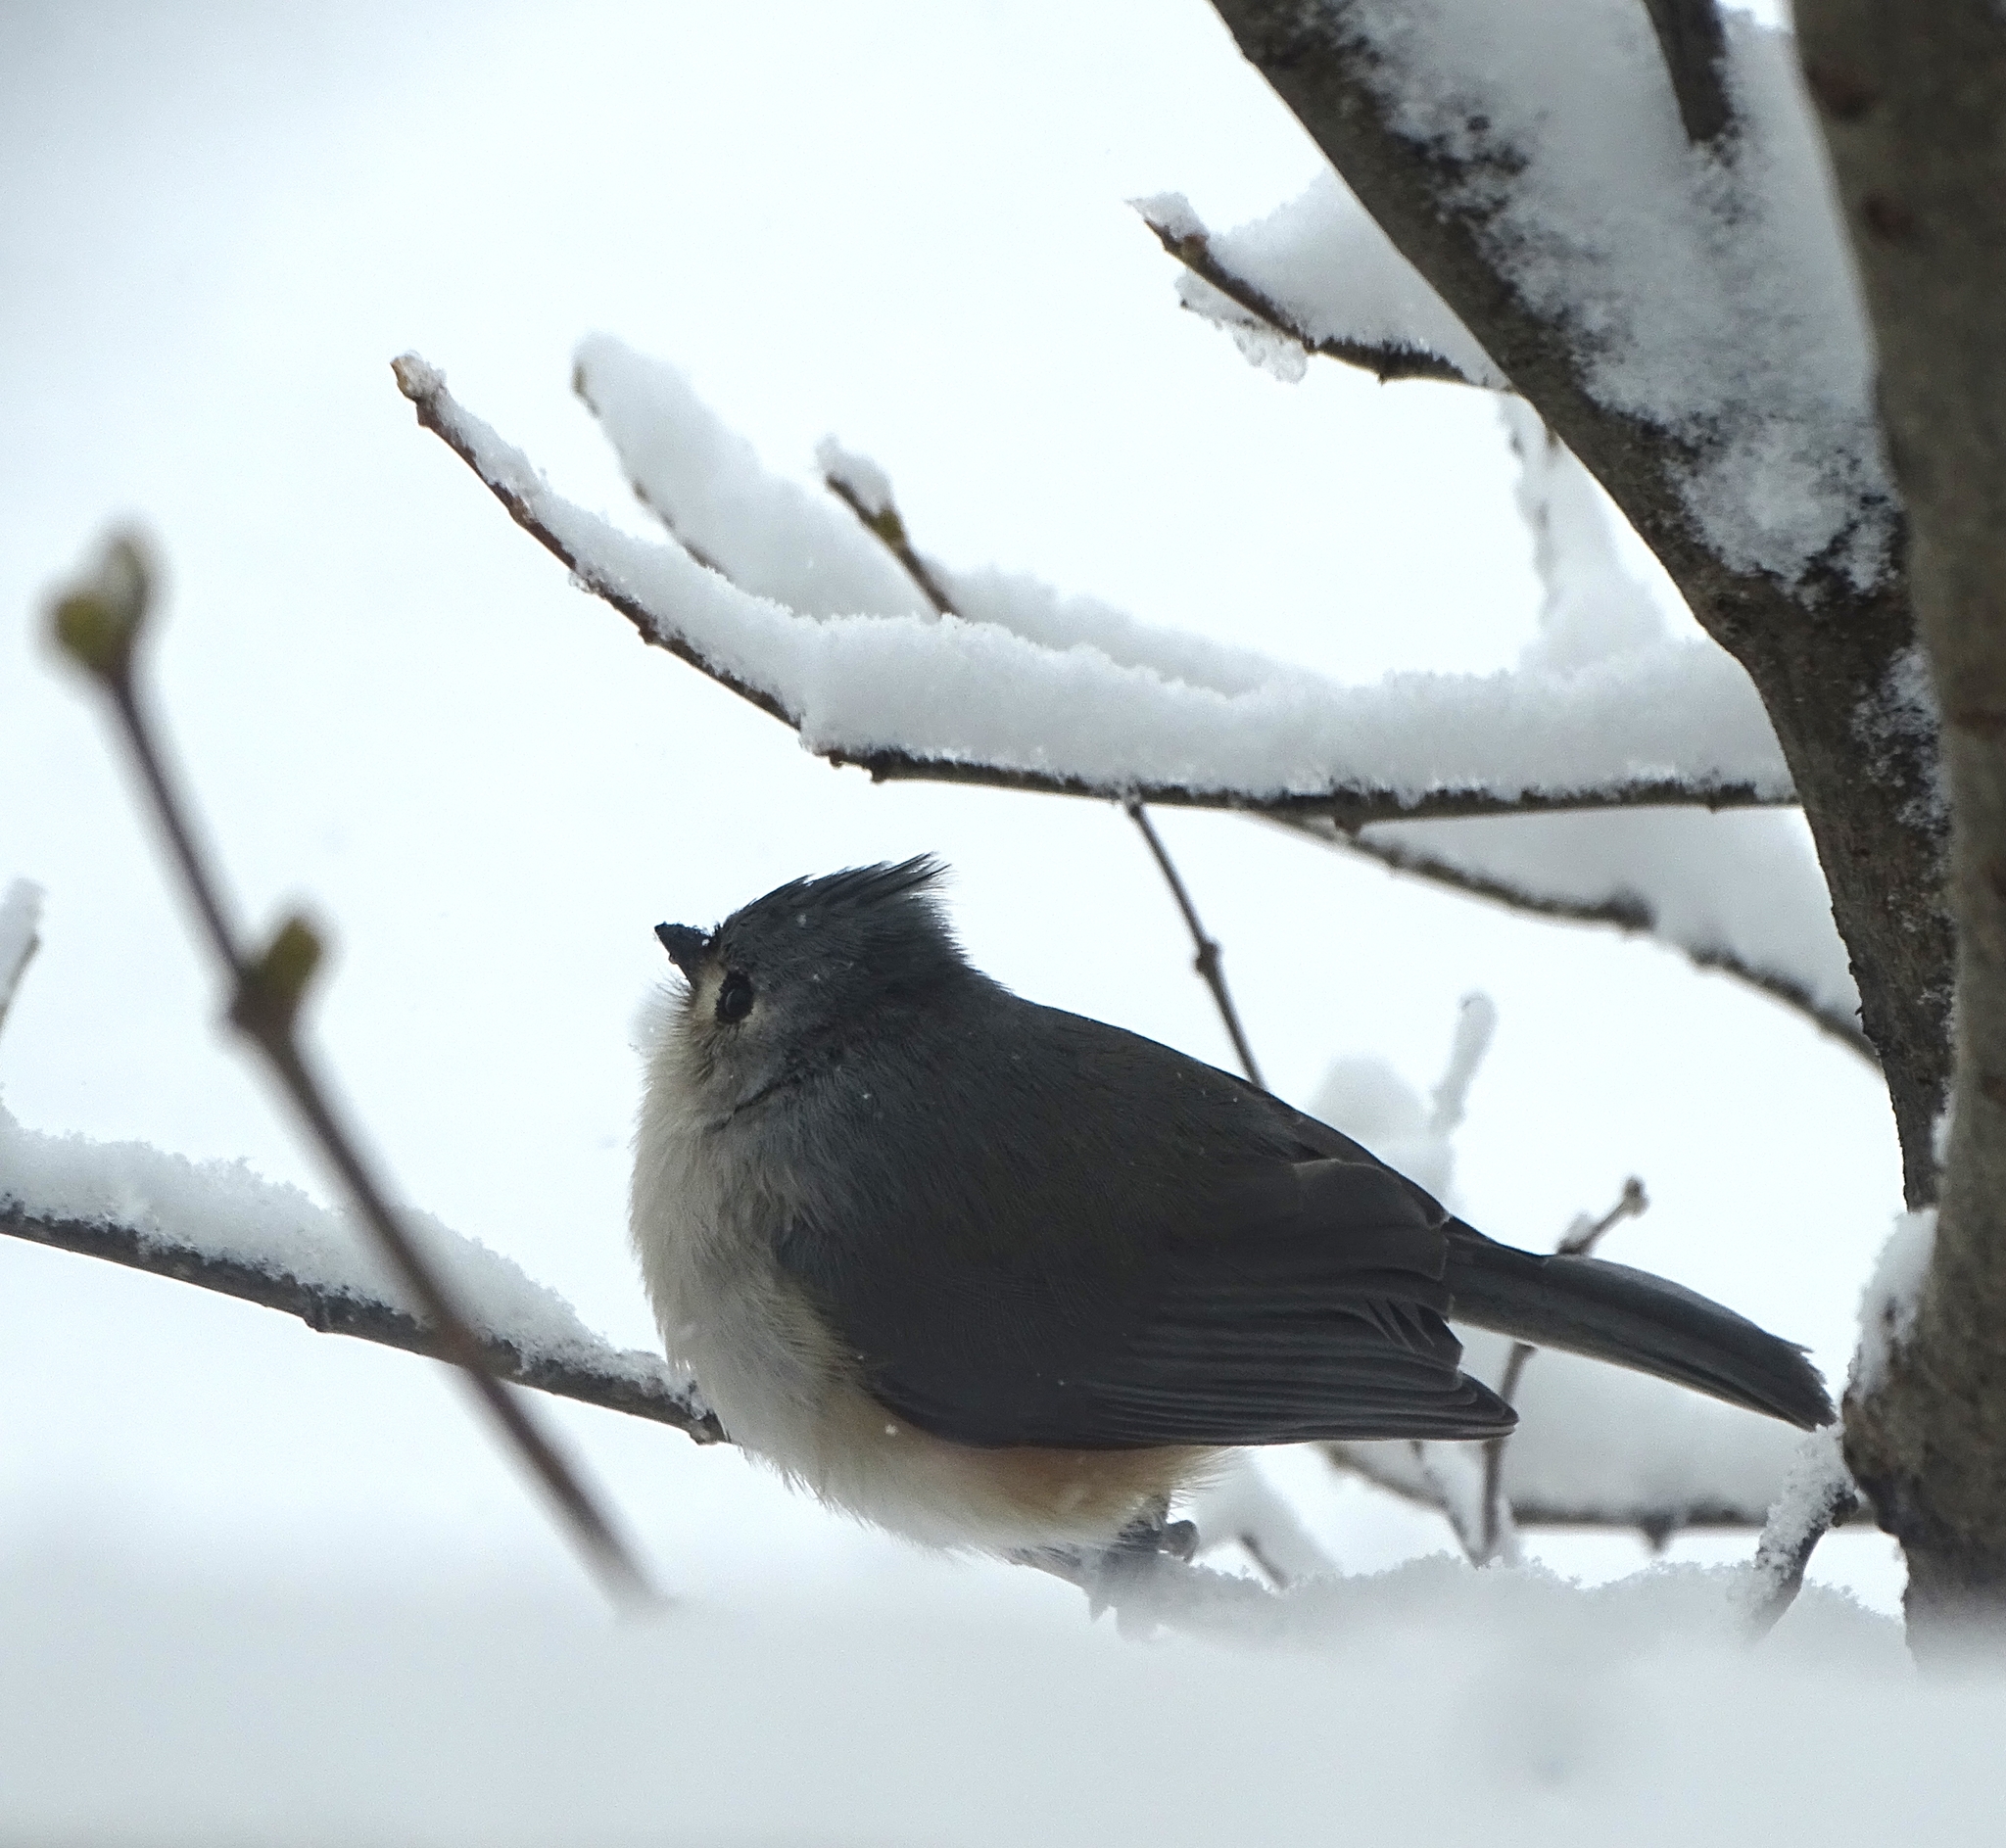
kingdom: Animalia
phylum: Chordata
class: Aves
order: Passeriformes
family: Paridae
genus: Baeolophus
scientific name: Baeolophus bicolor
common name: Tufted titmouse
